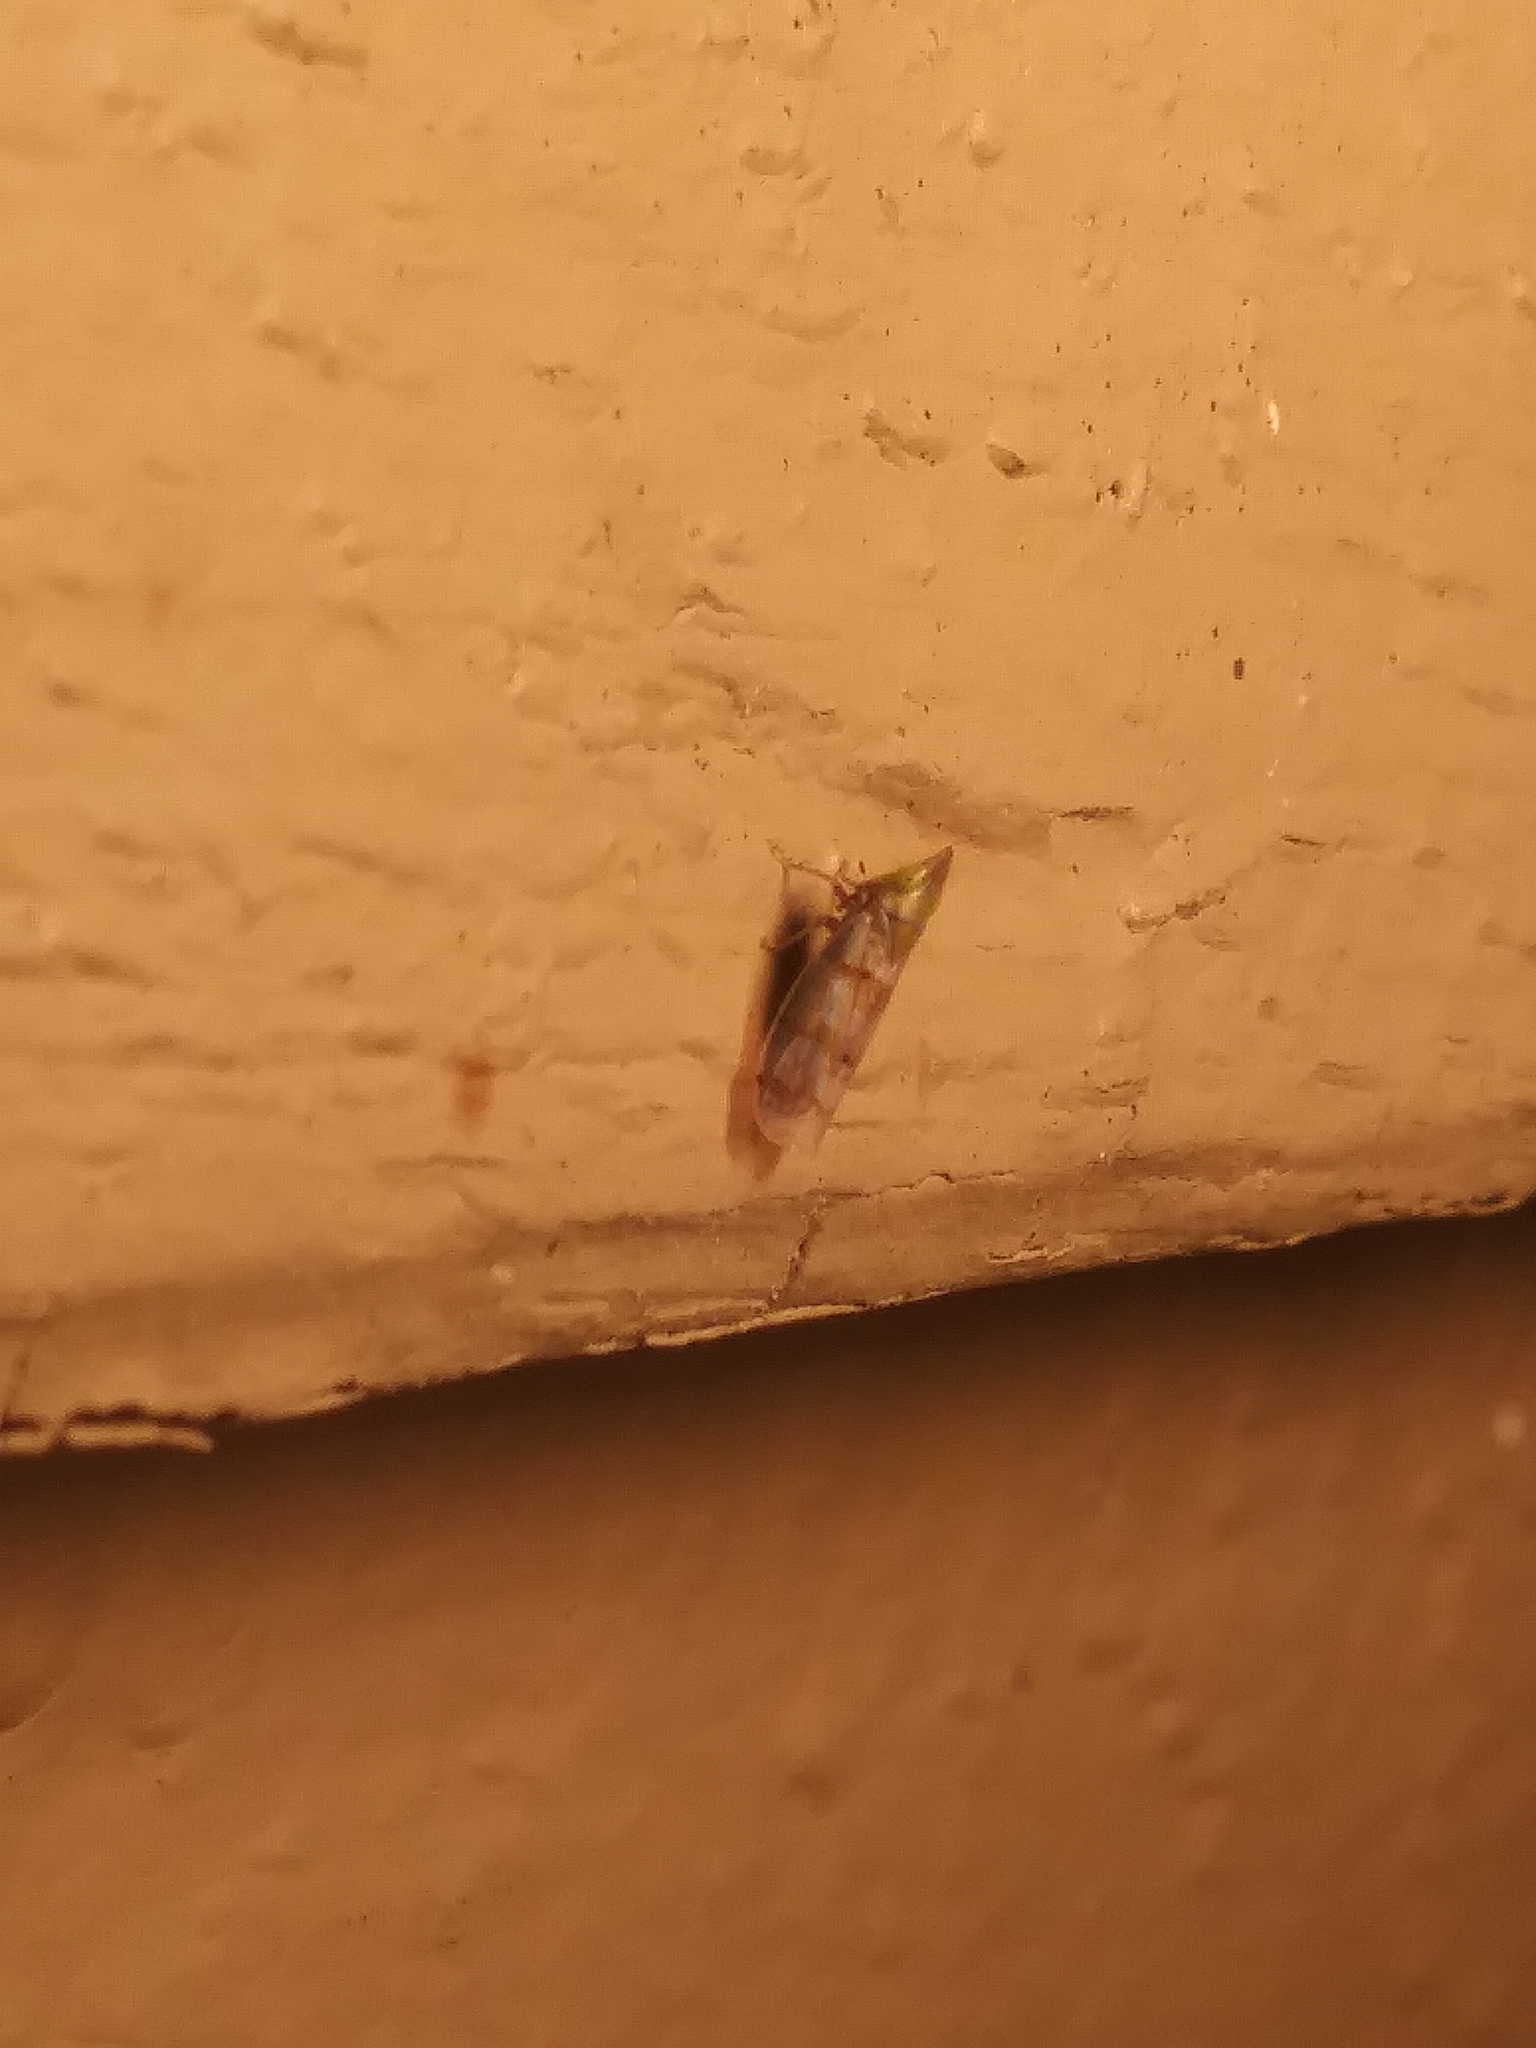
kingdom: Animalia
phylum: Arthropoda
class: Insecta
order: Hemiptera
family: Cicadellidae
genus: Japananus
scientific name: Japananus hyalinus
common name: The japanese maple leafhopper
